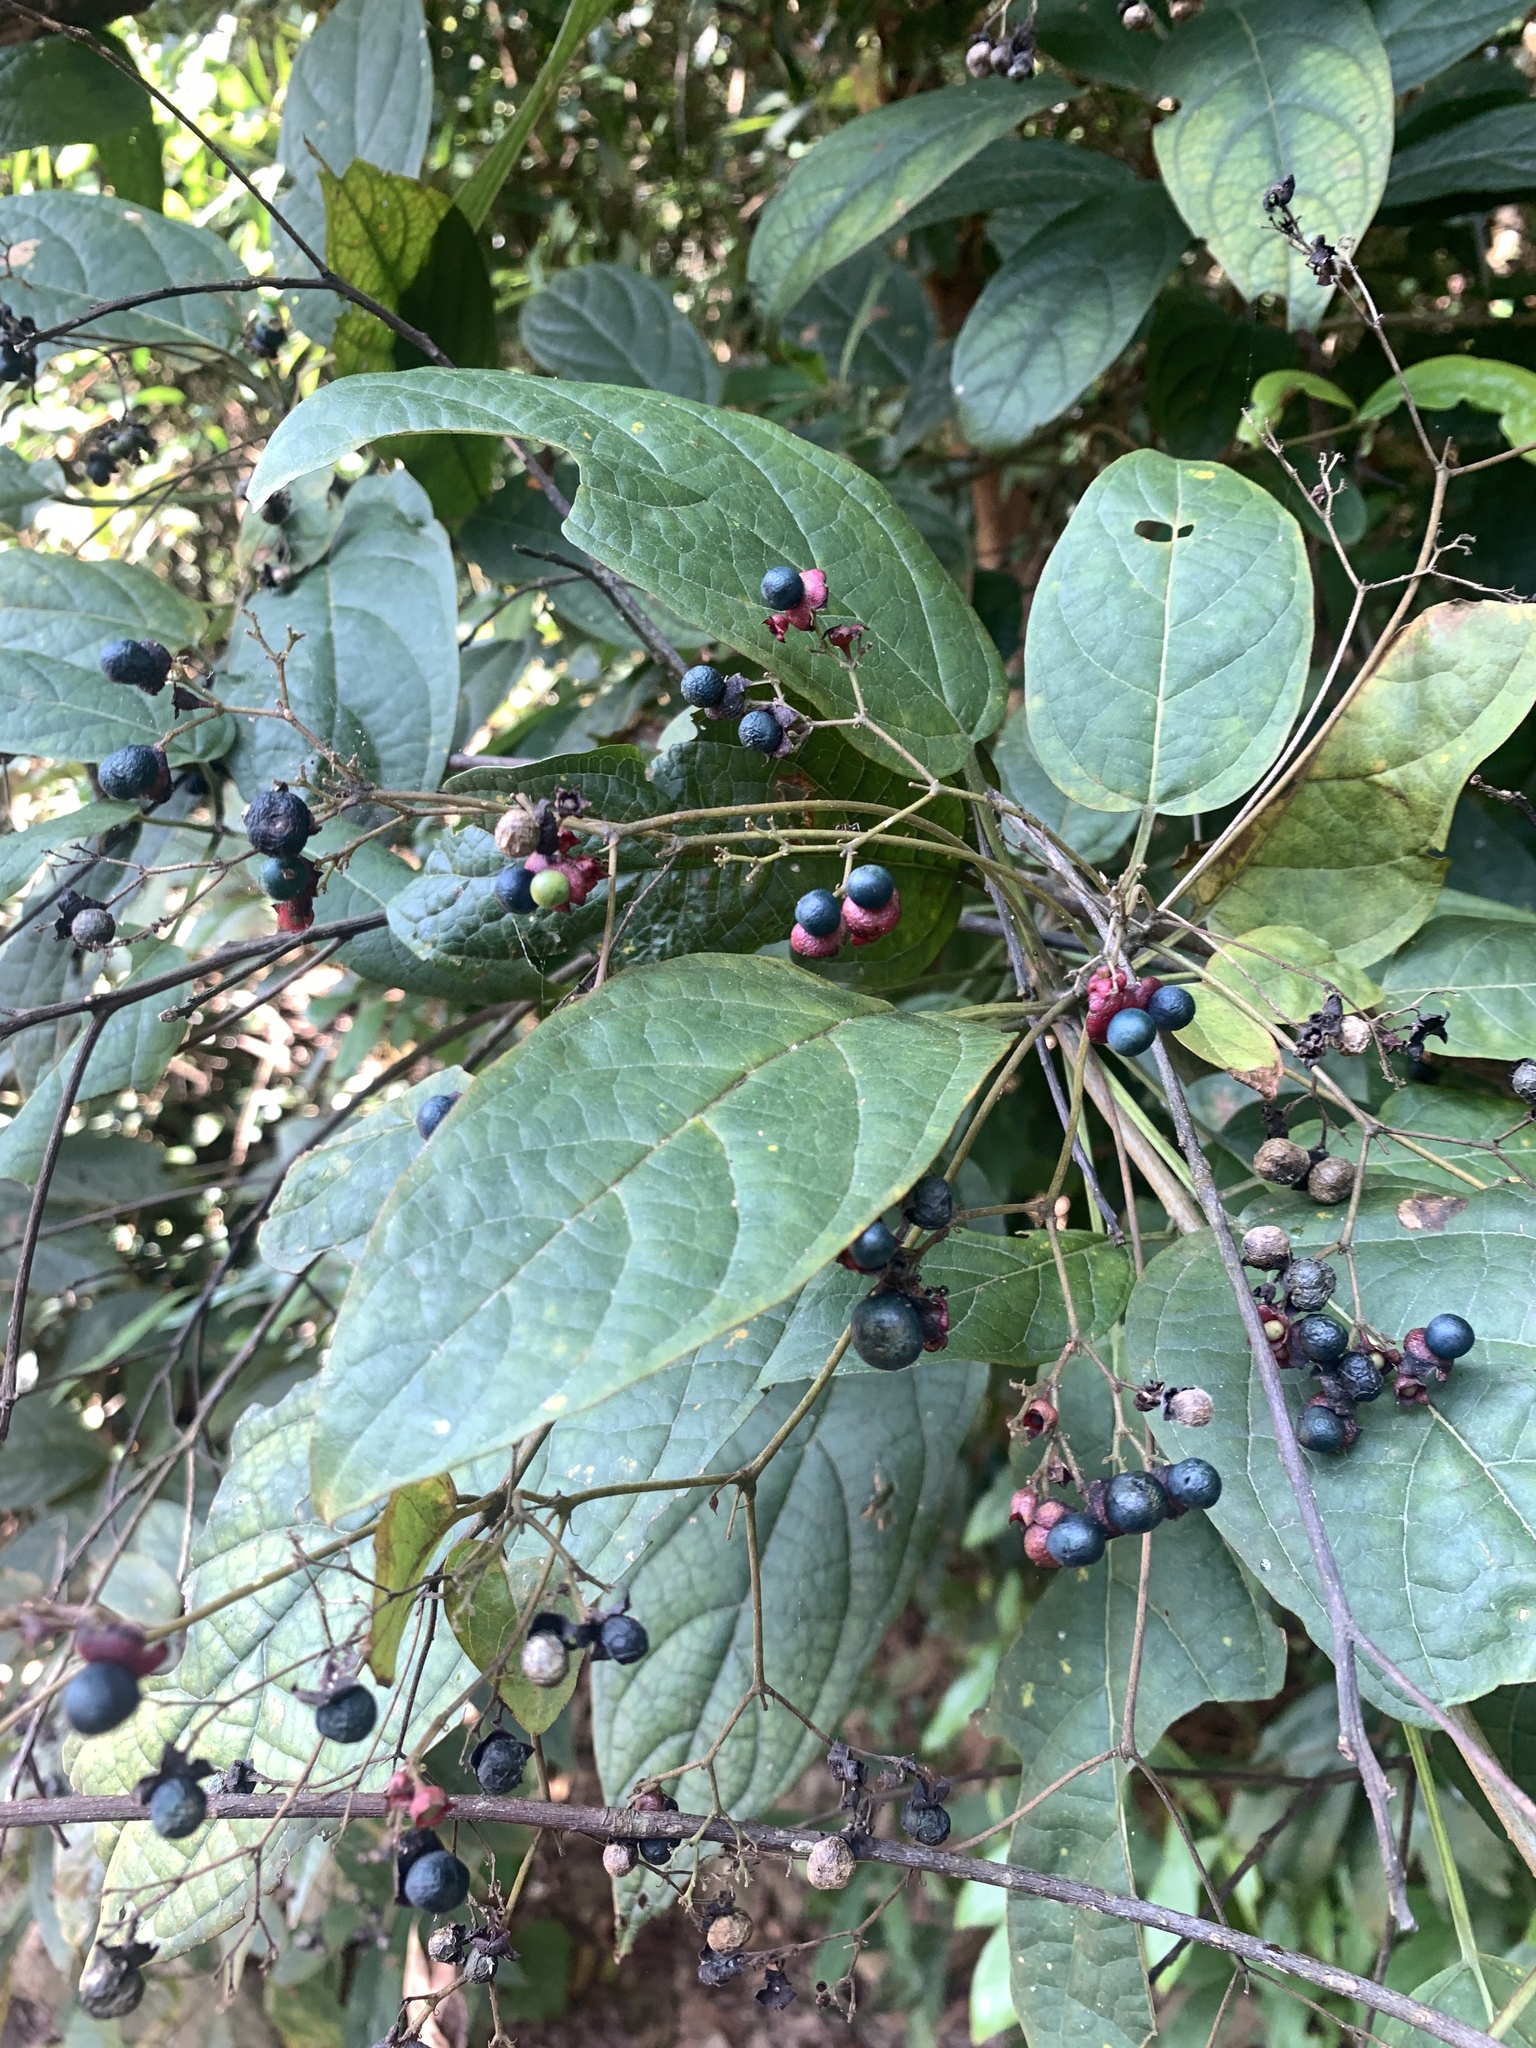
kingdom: Plantae
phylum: Tracheophyta
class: Magnoliopsida
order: Lamiales
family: Lamiaceae
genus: Clerodendrum
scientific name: Clerodendrum cyrtophyllum
